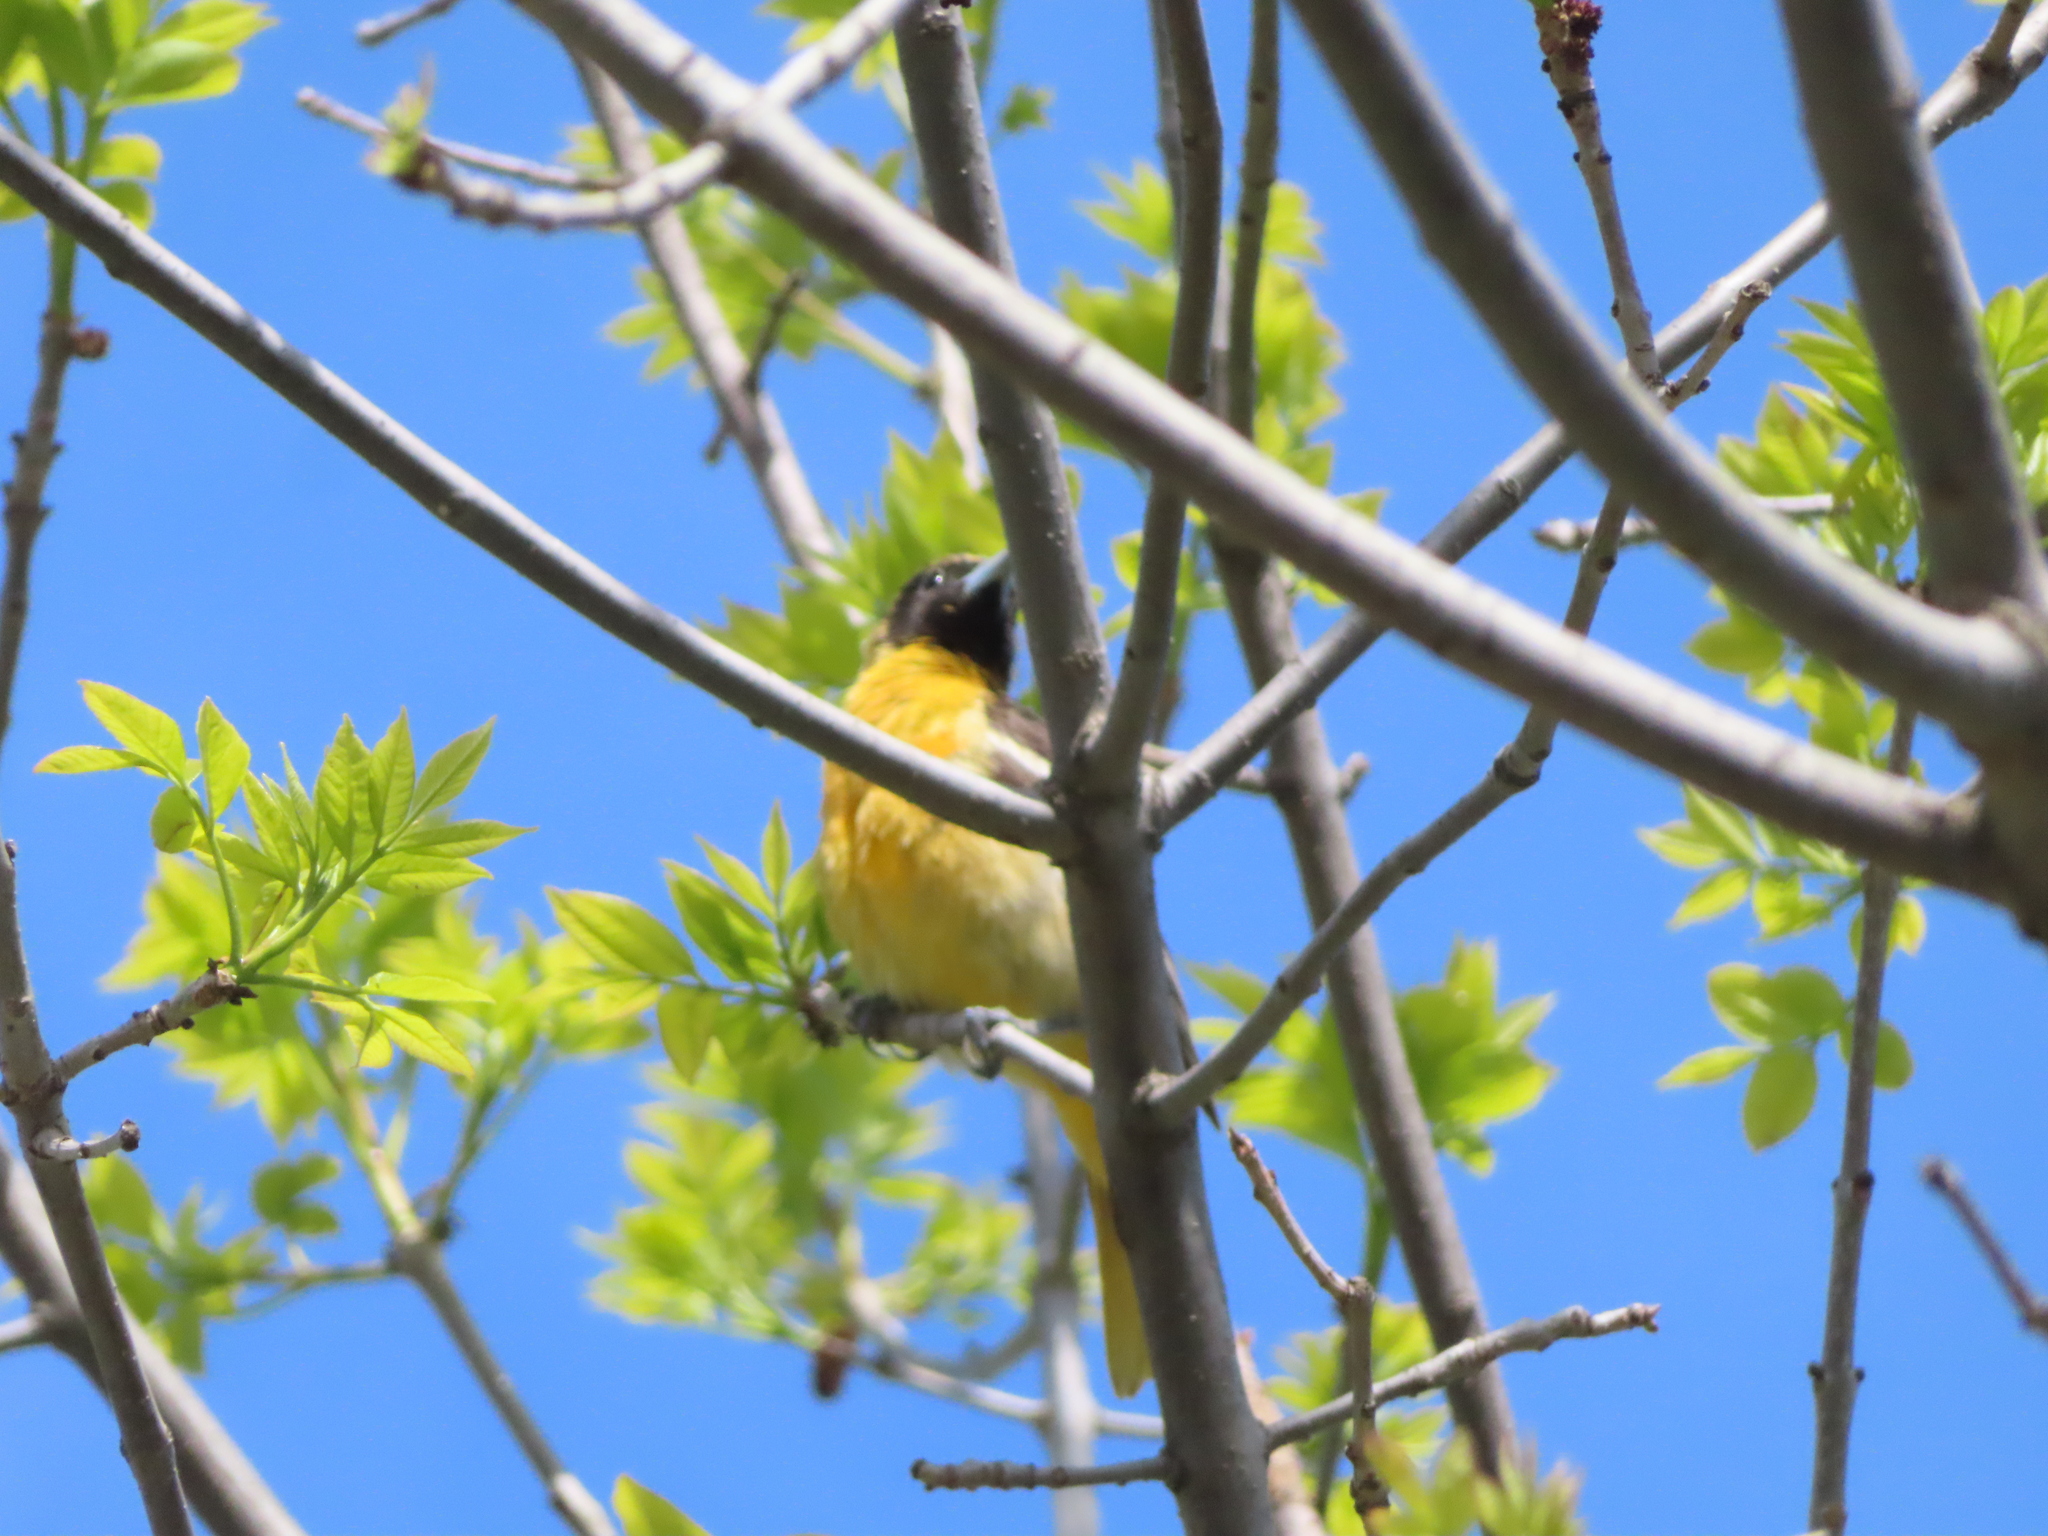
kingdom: Animalia
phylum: Chordata
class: Aves
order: Passeriformes
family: Icteridae
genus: Icterus
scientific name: Icterus galbula
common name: Baltimore oriole
